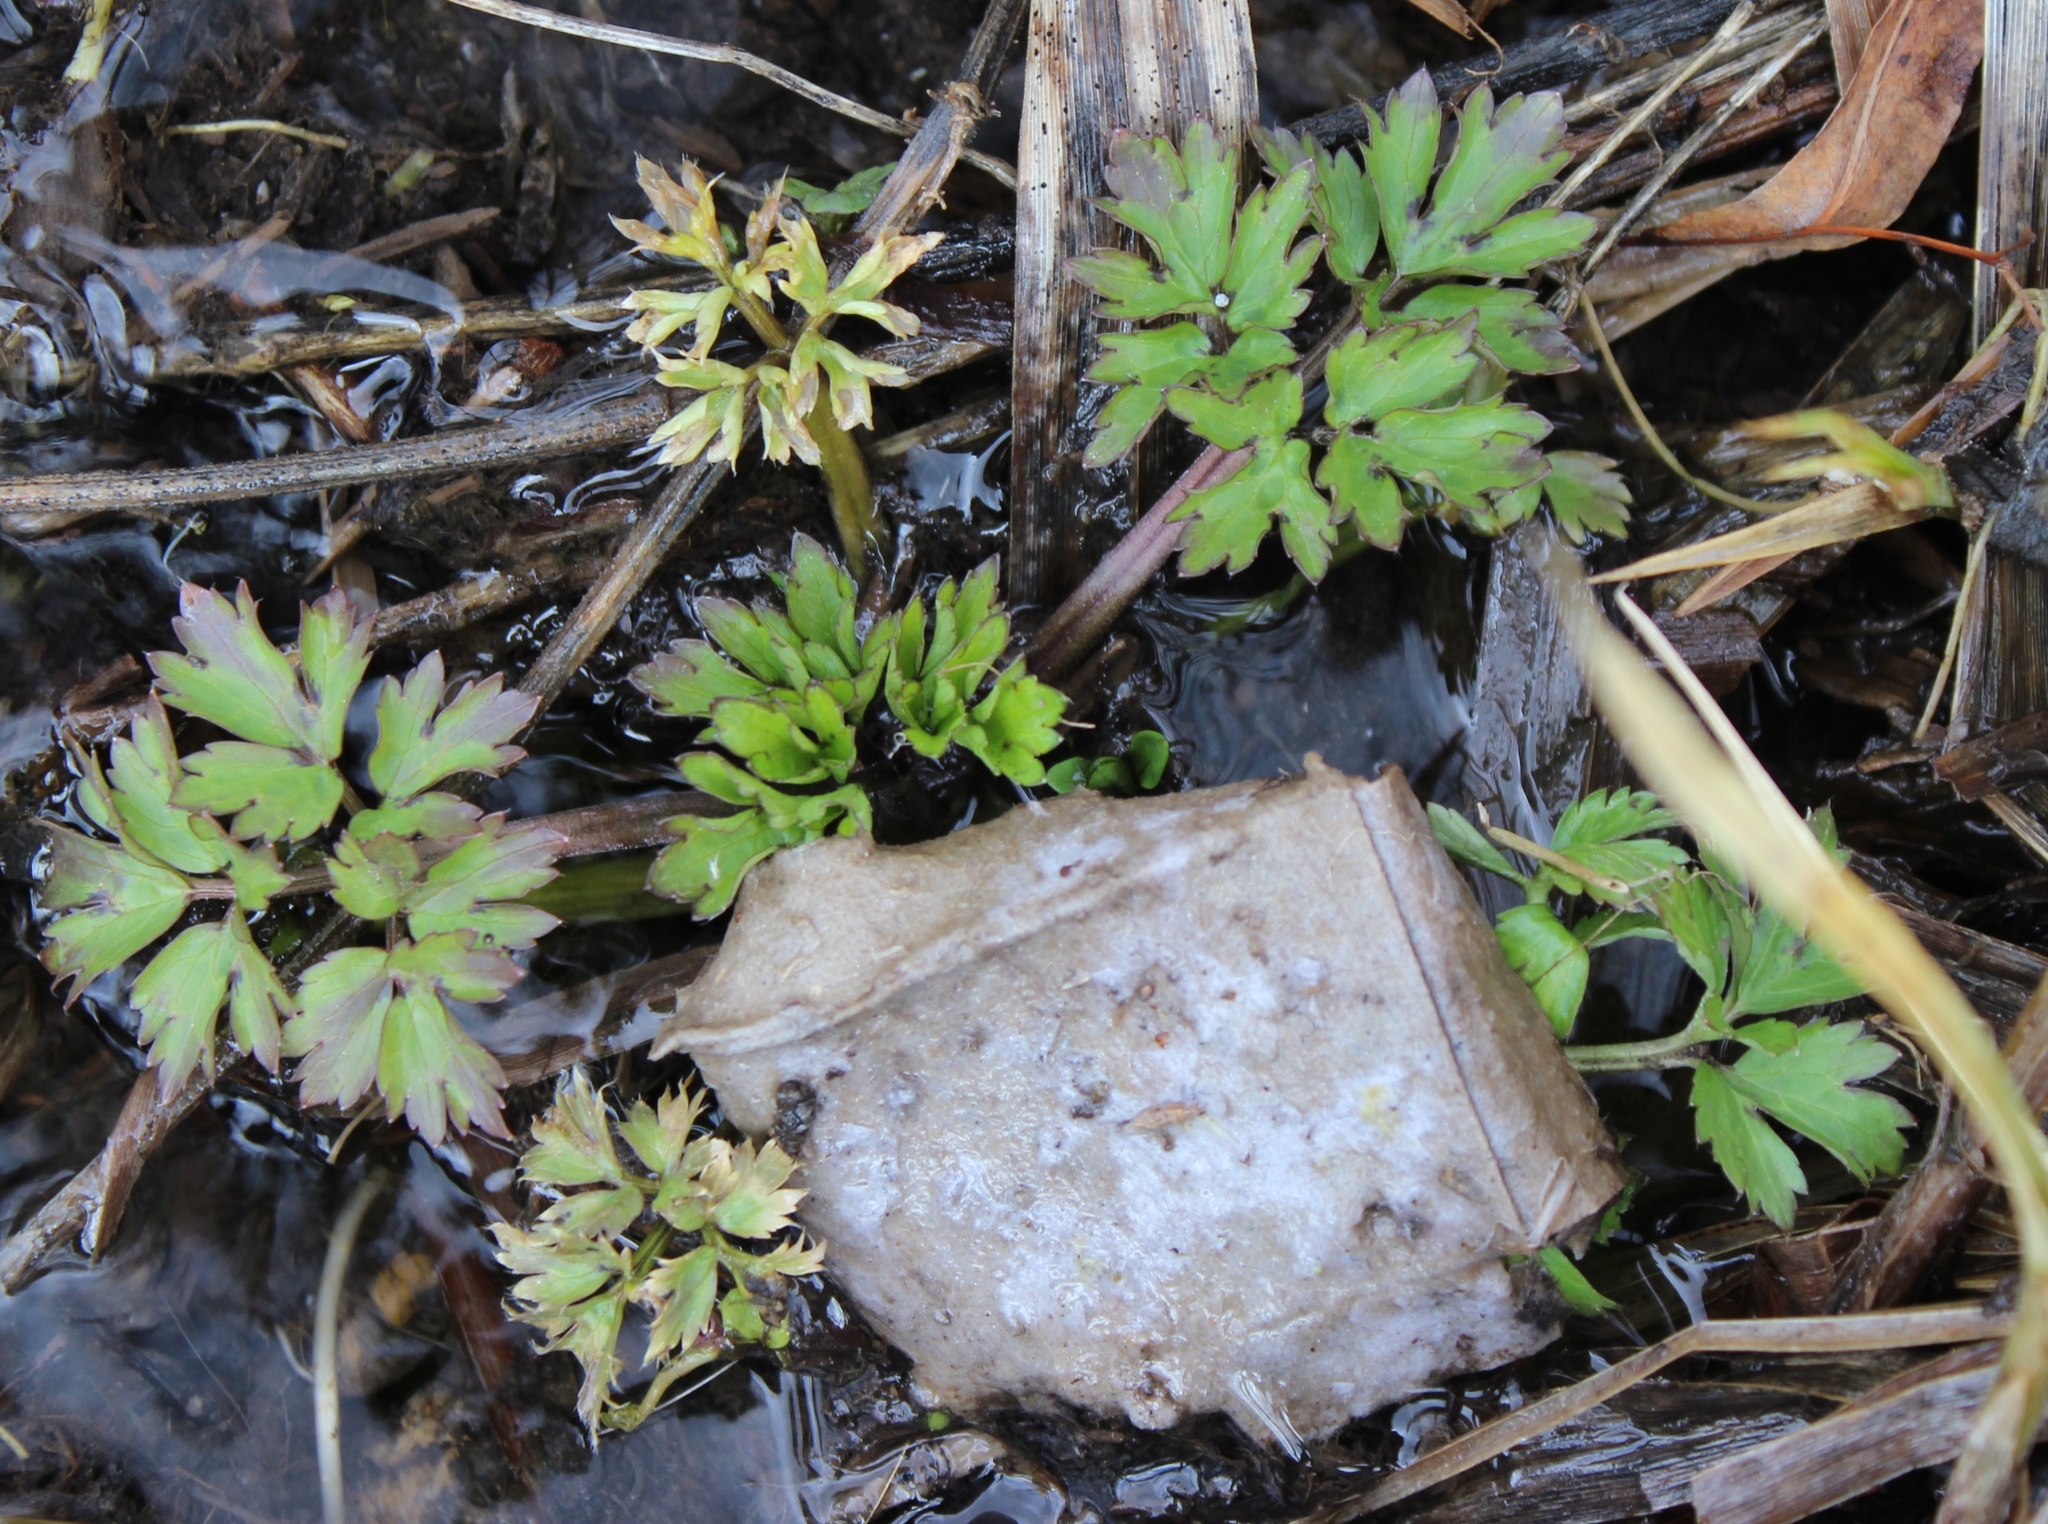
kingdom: Plantae
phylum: Tracheophyta
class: Magnoliopsida
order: Ranunculales
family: Ranunculaceae
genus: Ranunculus
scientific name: Ranunculus repens
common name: Creeping buttercup
